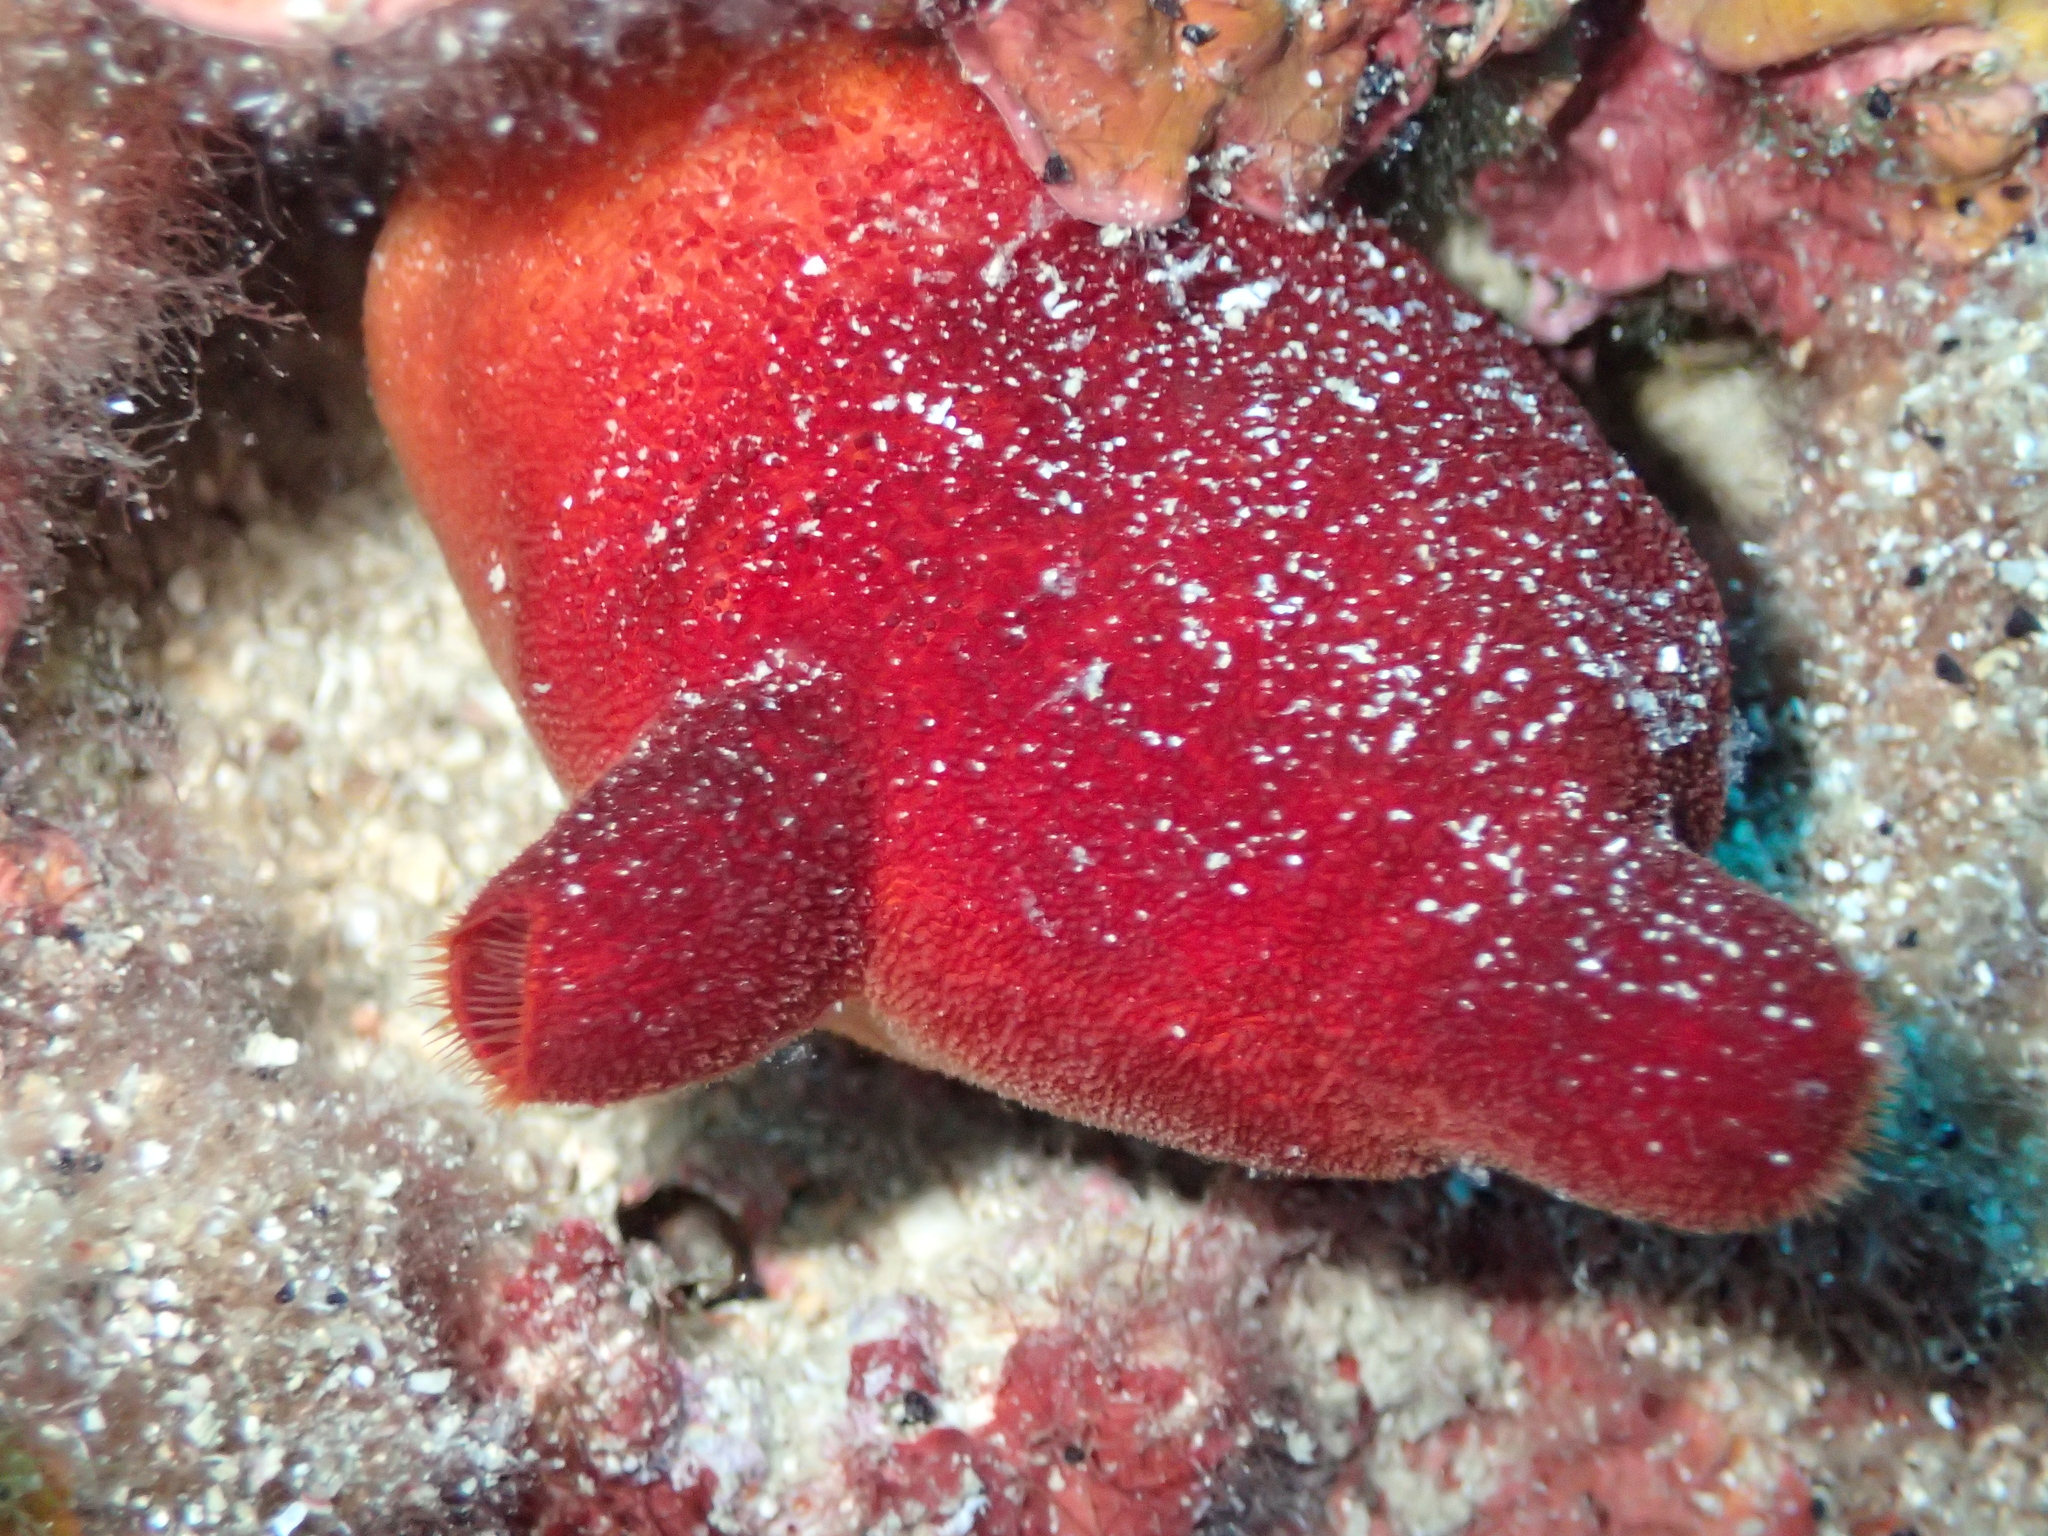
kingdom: Animalia
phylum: Chordata
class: Ascidiacea
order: Stolidobranchia
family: Pyuridae
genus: Halocynthia
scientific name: Halocynthia papillosa
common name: Red sea-squirt
